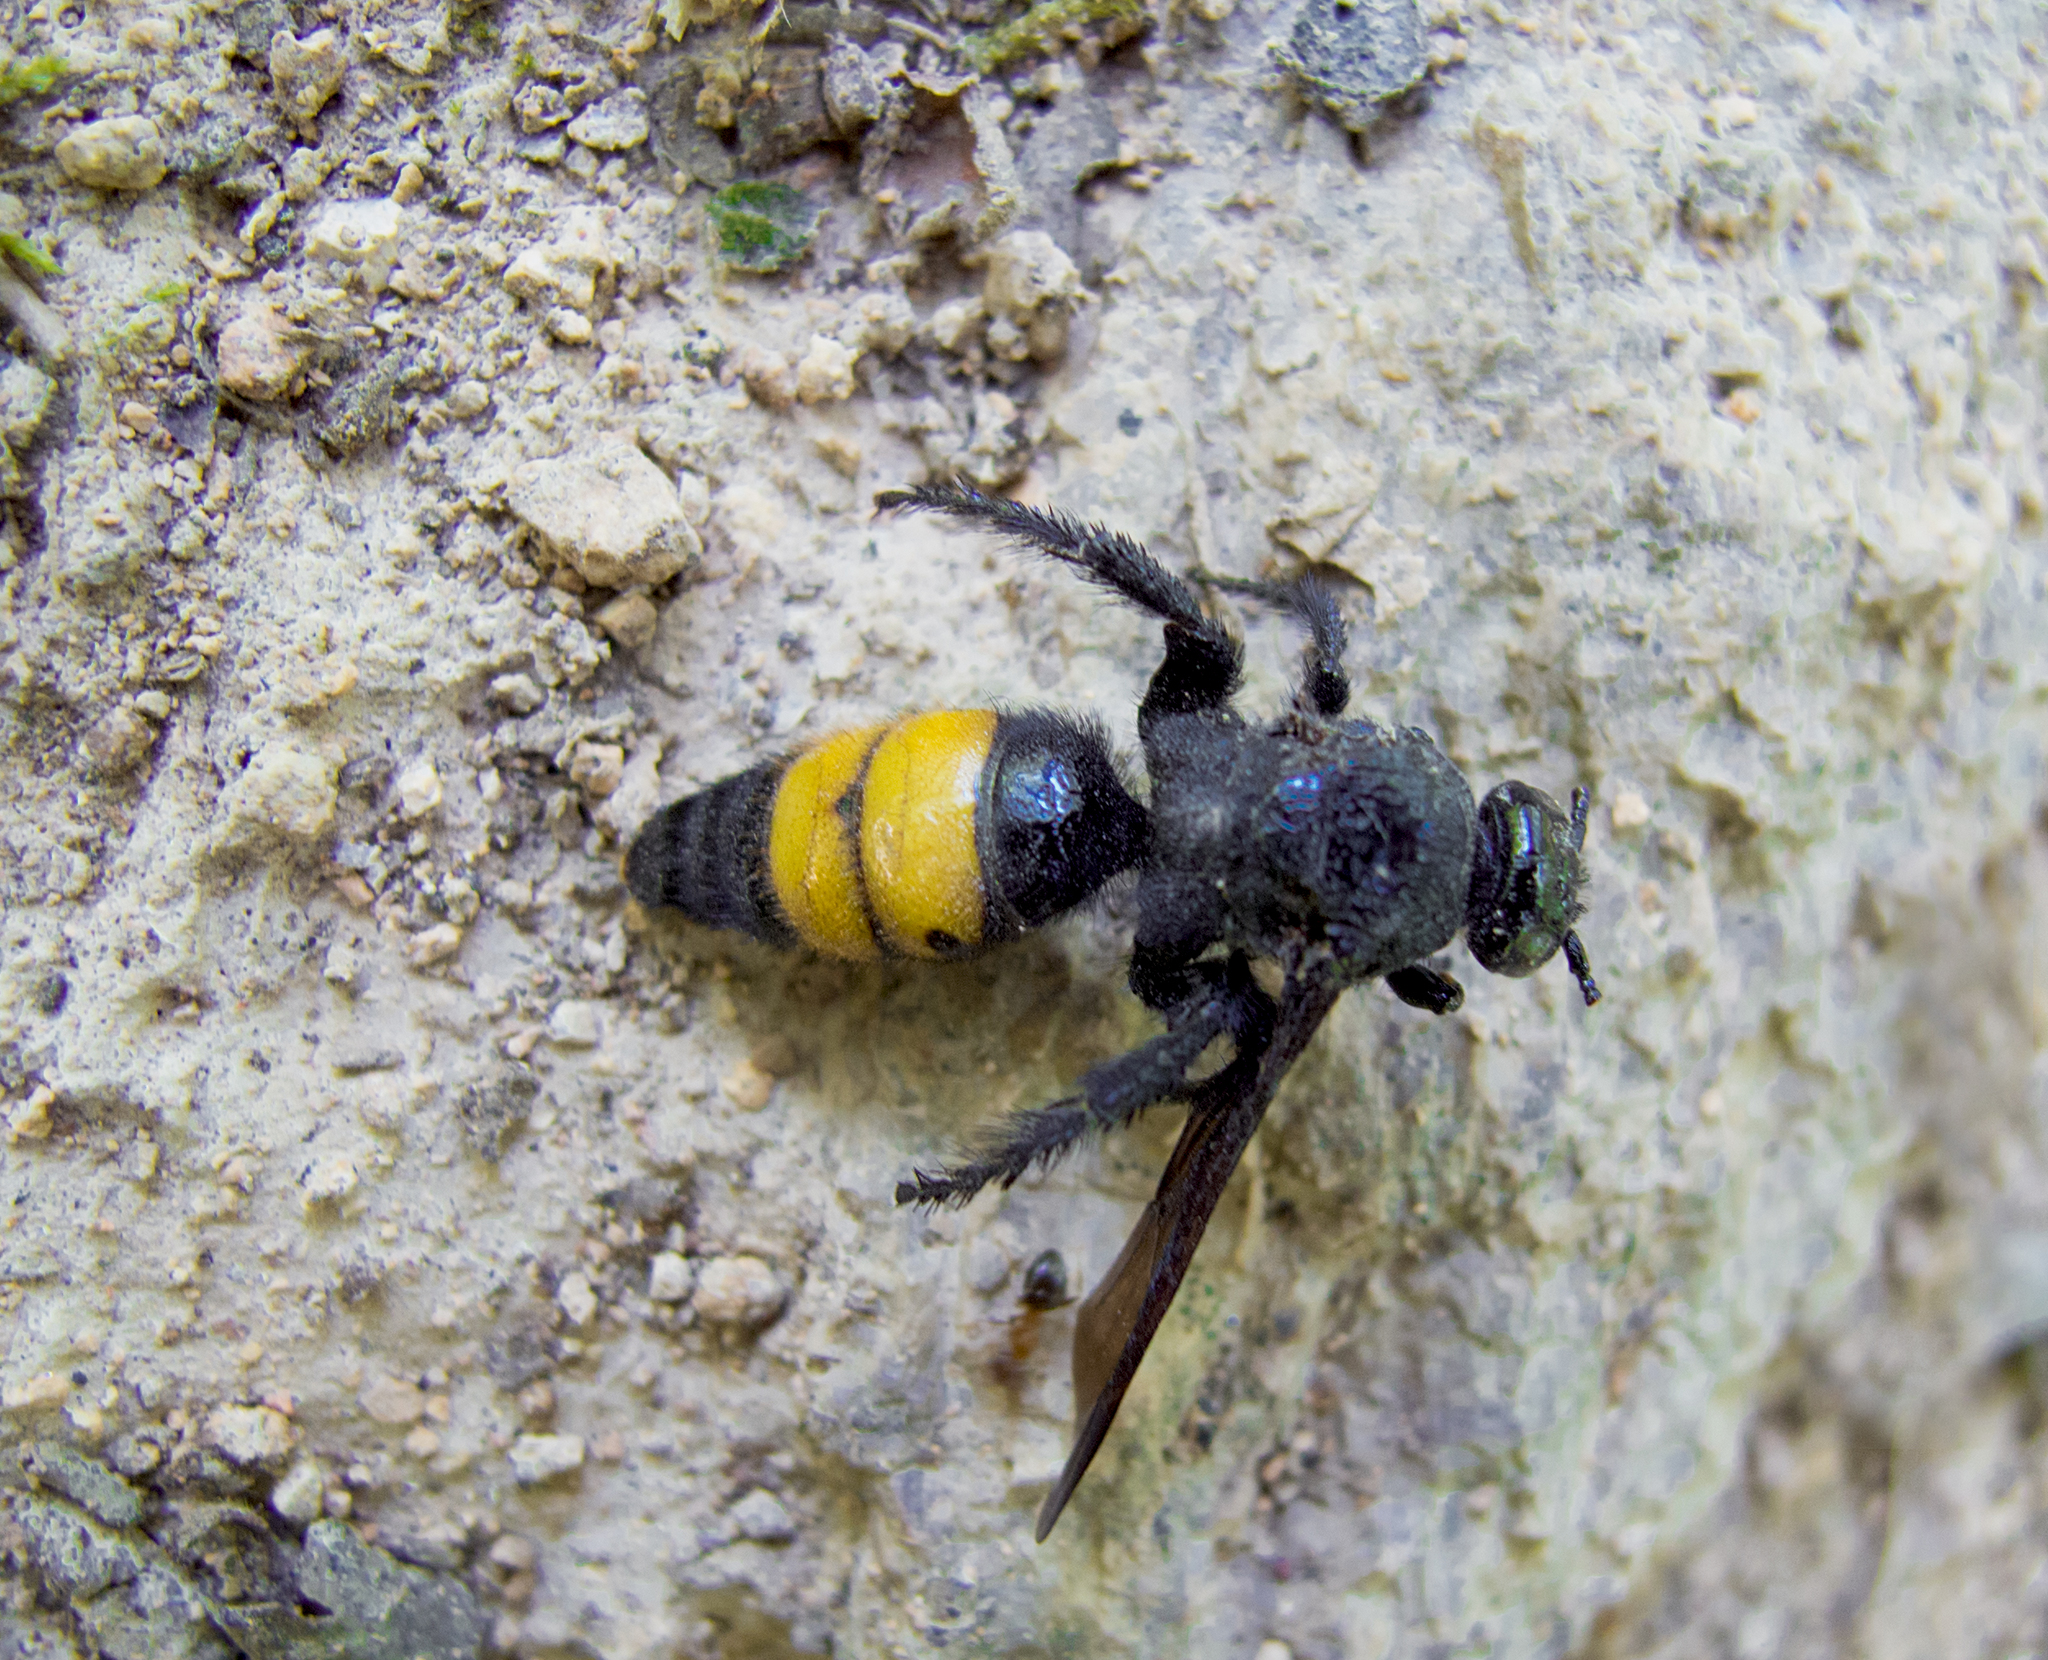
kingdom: Animalia
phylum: Arthropoda
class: Insecta
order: Hymenoptera
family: Scoliidae
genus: Scolia
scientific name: Scolia hirta
